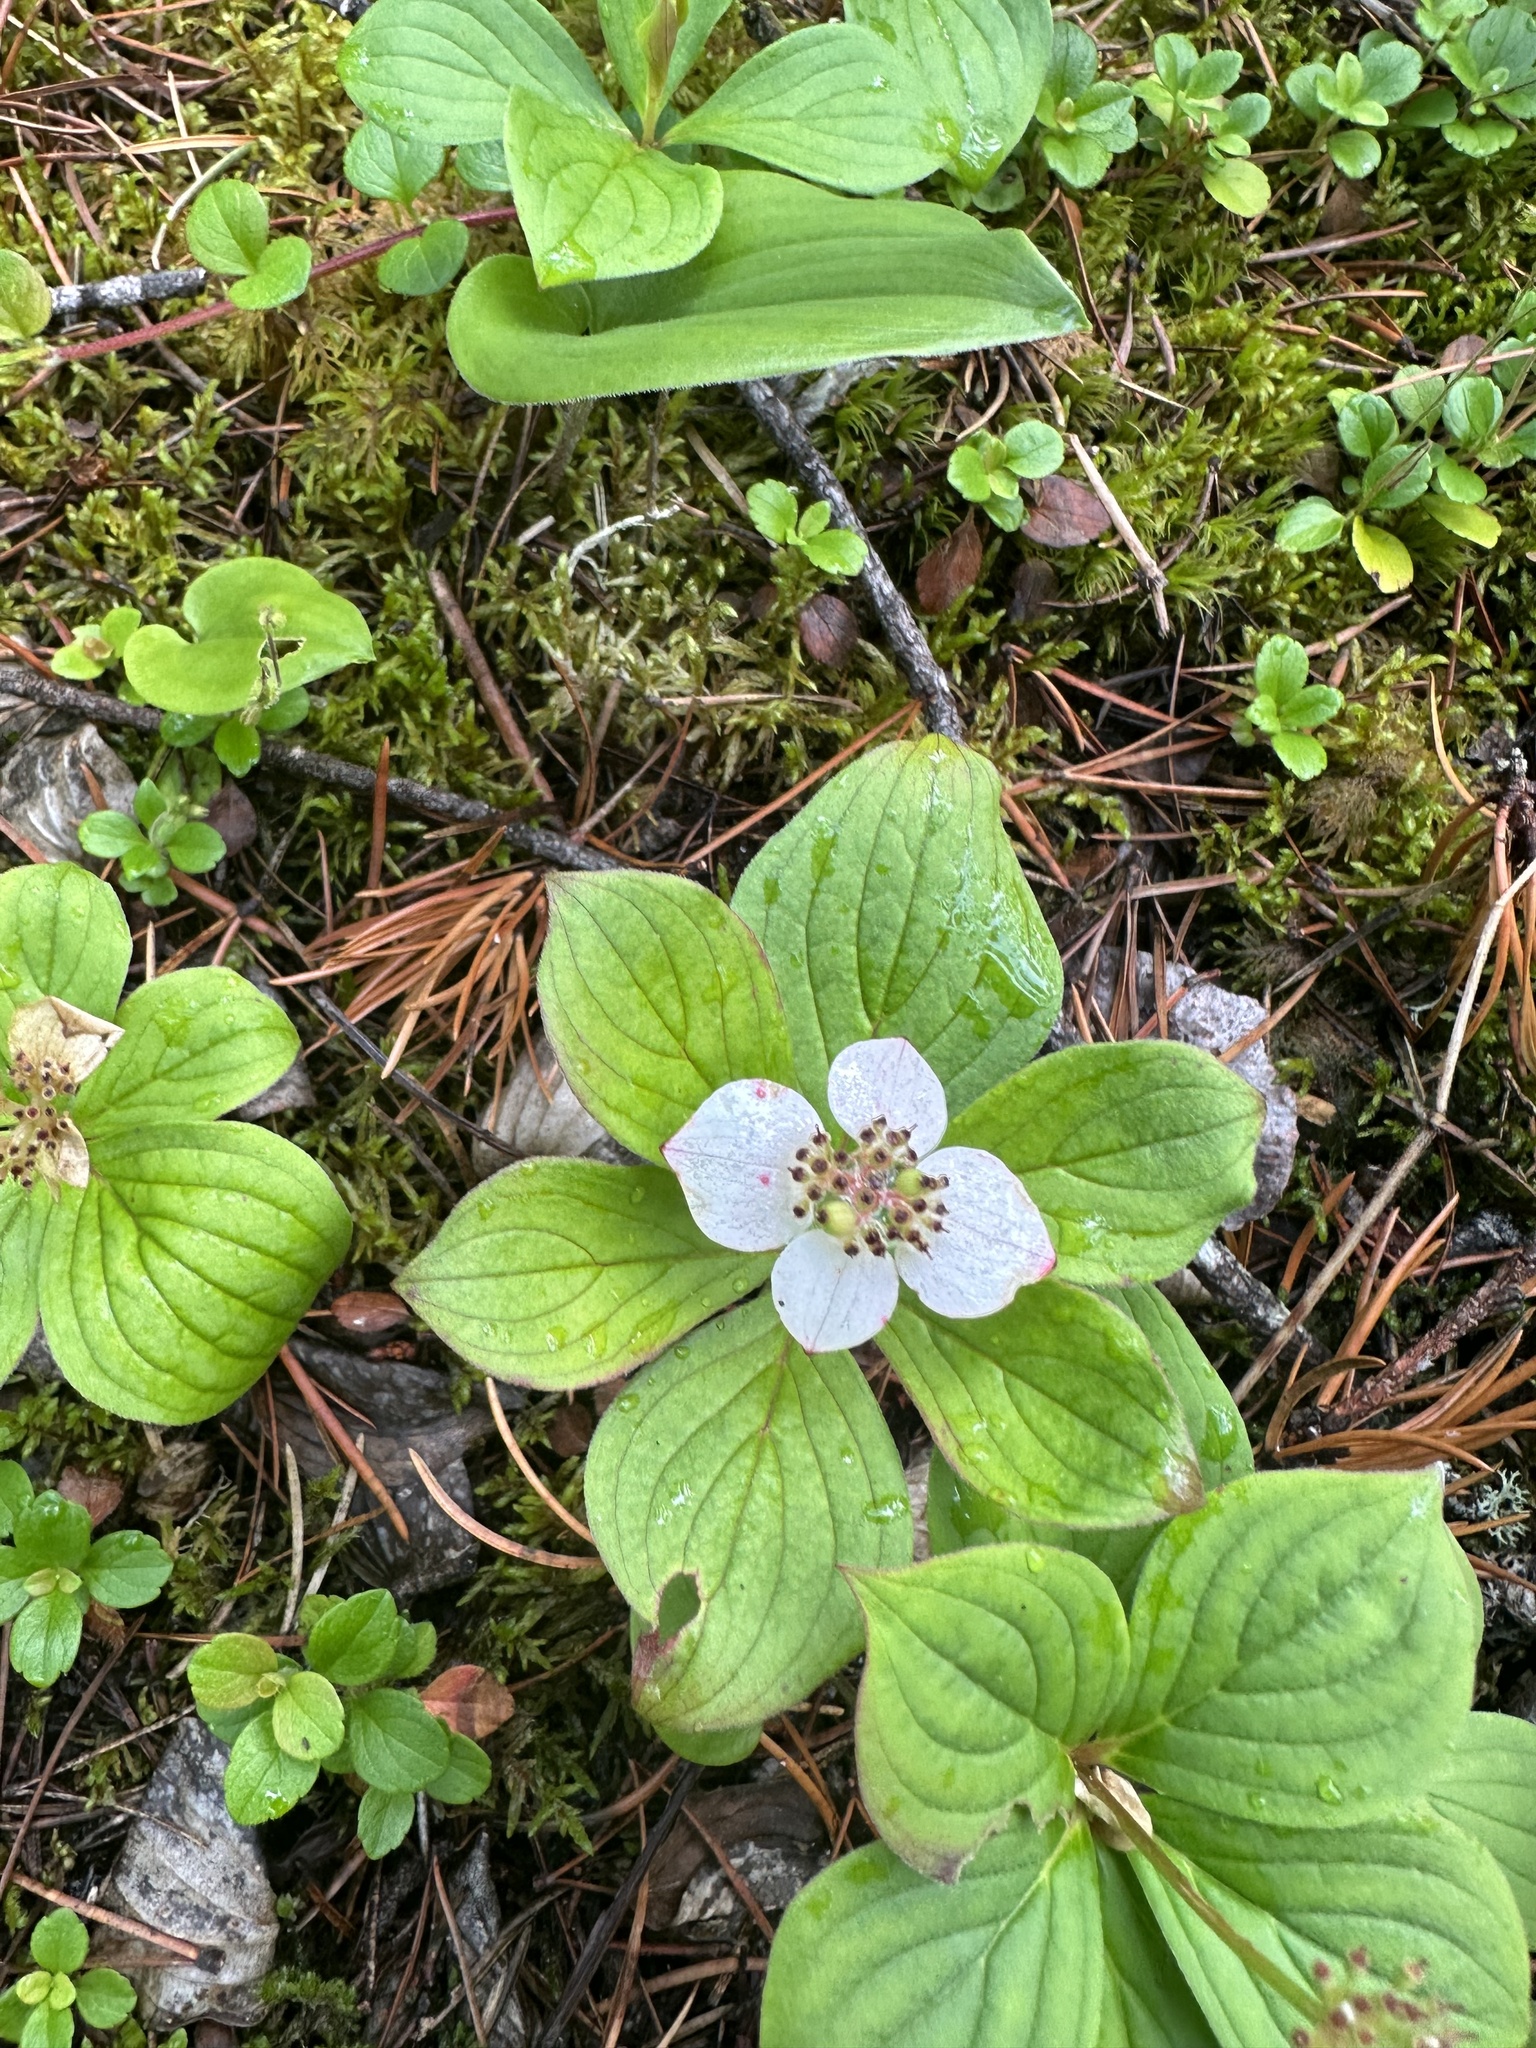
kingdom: Plantae
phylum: Tracheophyta
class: Magnoliopsida
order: Cornales
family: Cornaceae
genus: Cornus
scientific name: Cornus canadensis
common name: Creeping dogwood
